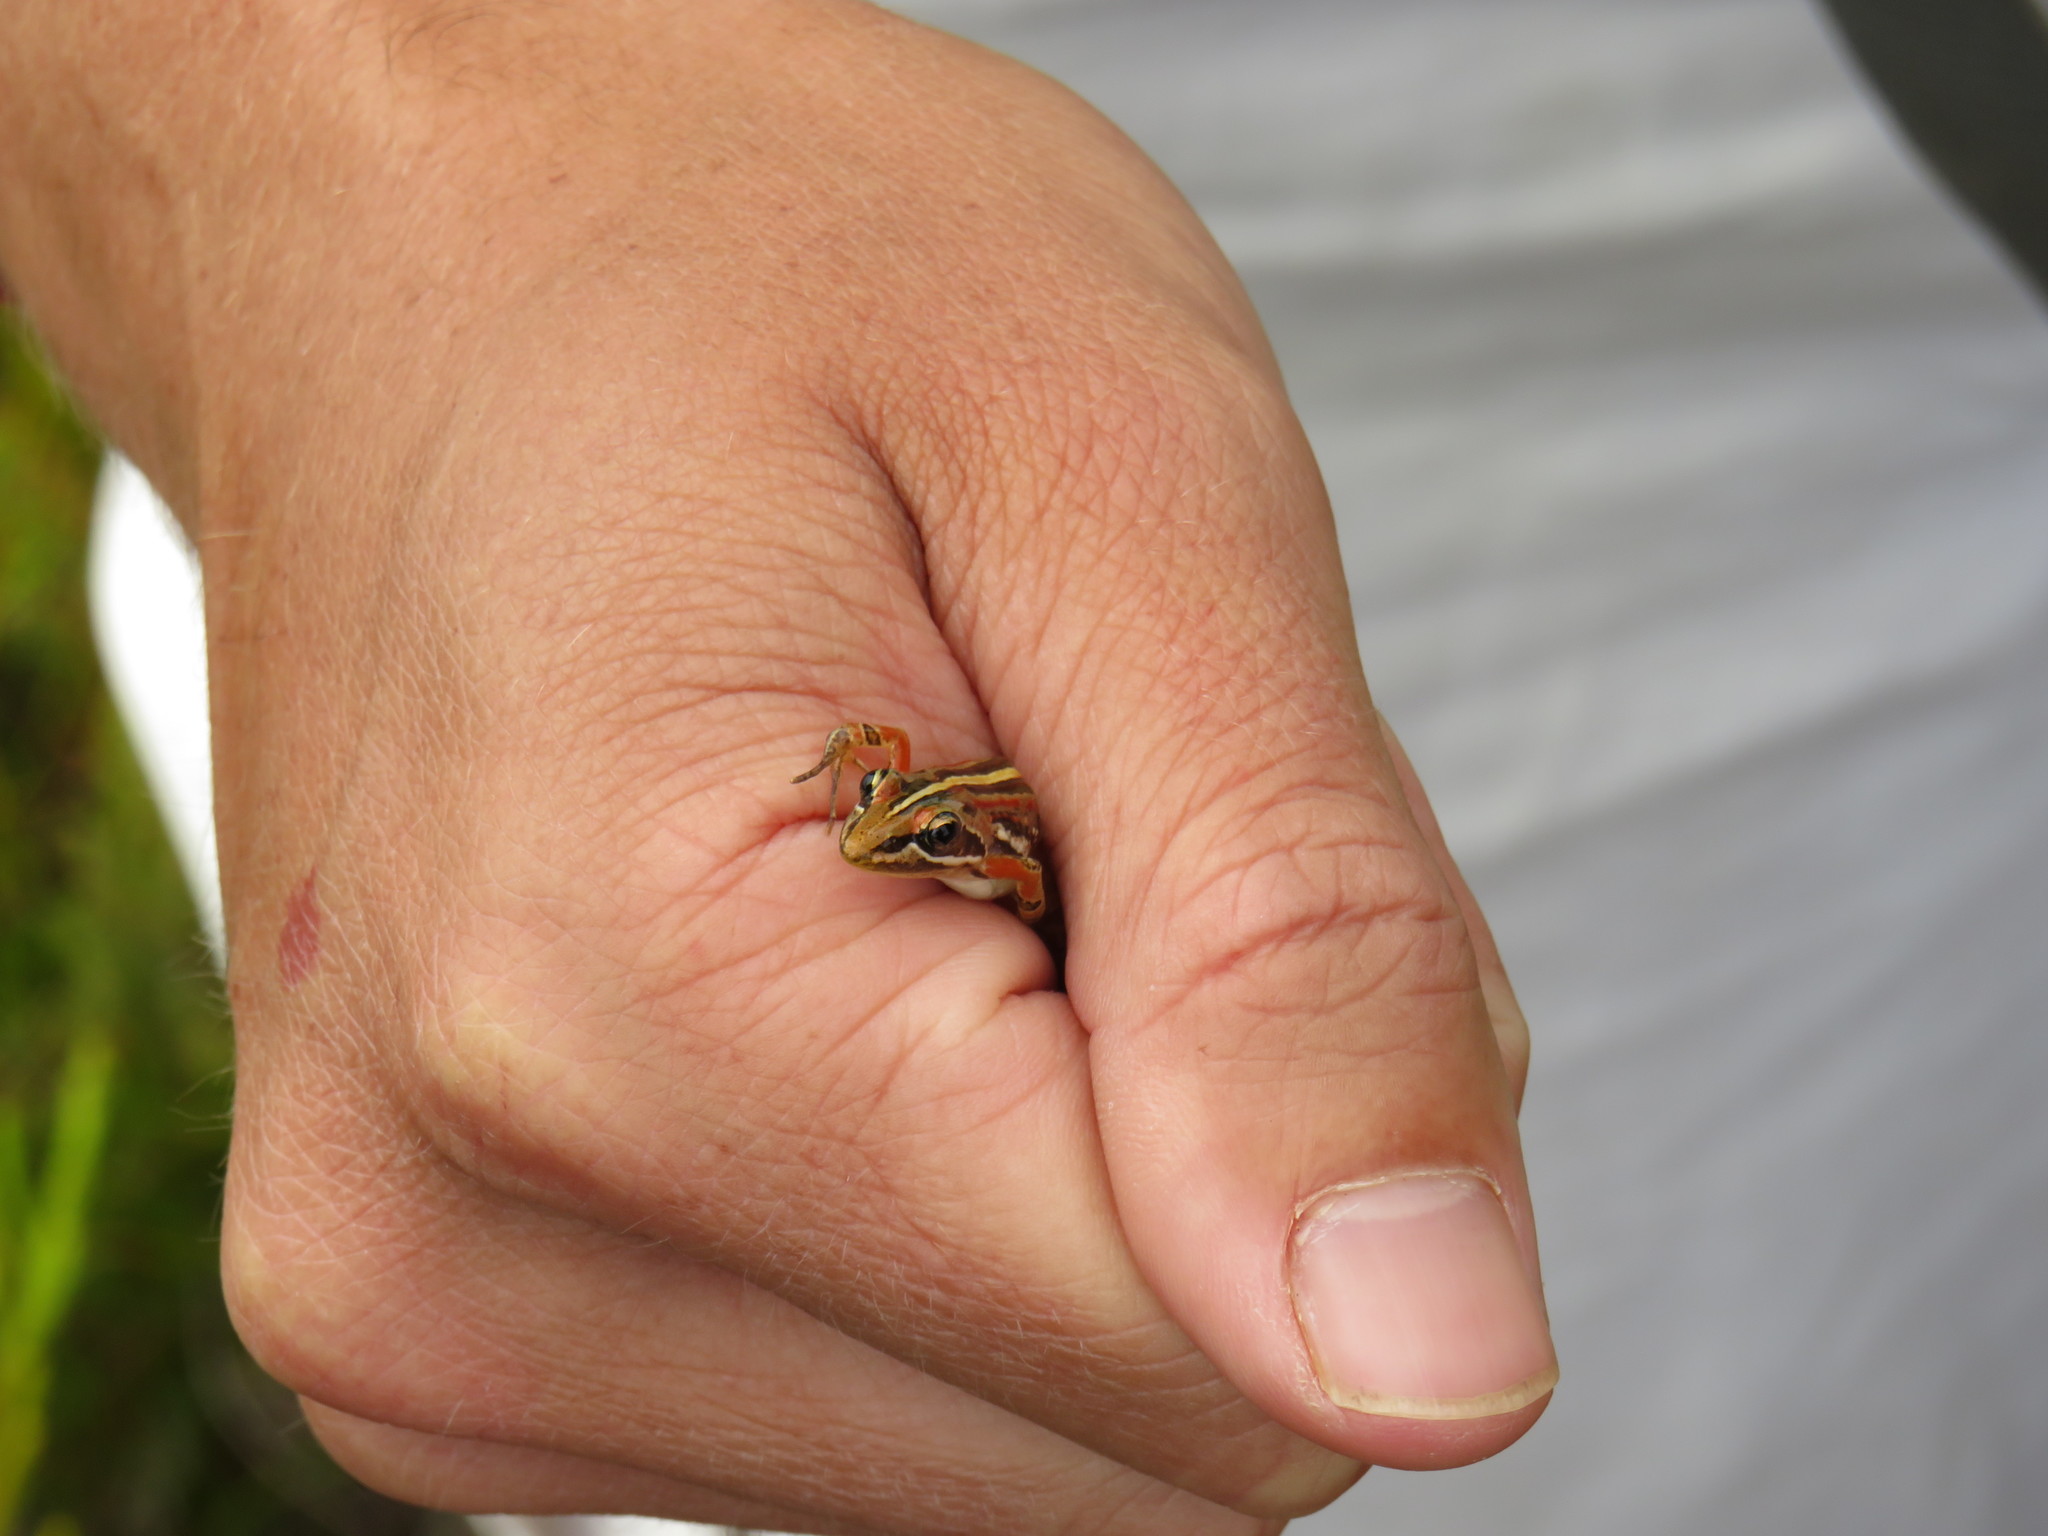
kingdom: Animalia
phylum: Chordata
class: Amphibia
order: Anura
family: Pyxicephalidae
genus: Strongylopus
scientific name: Strongylopus bonaespei
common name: Banded stream frog
